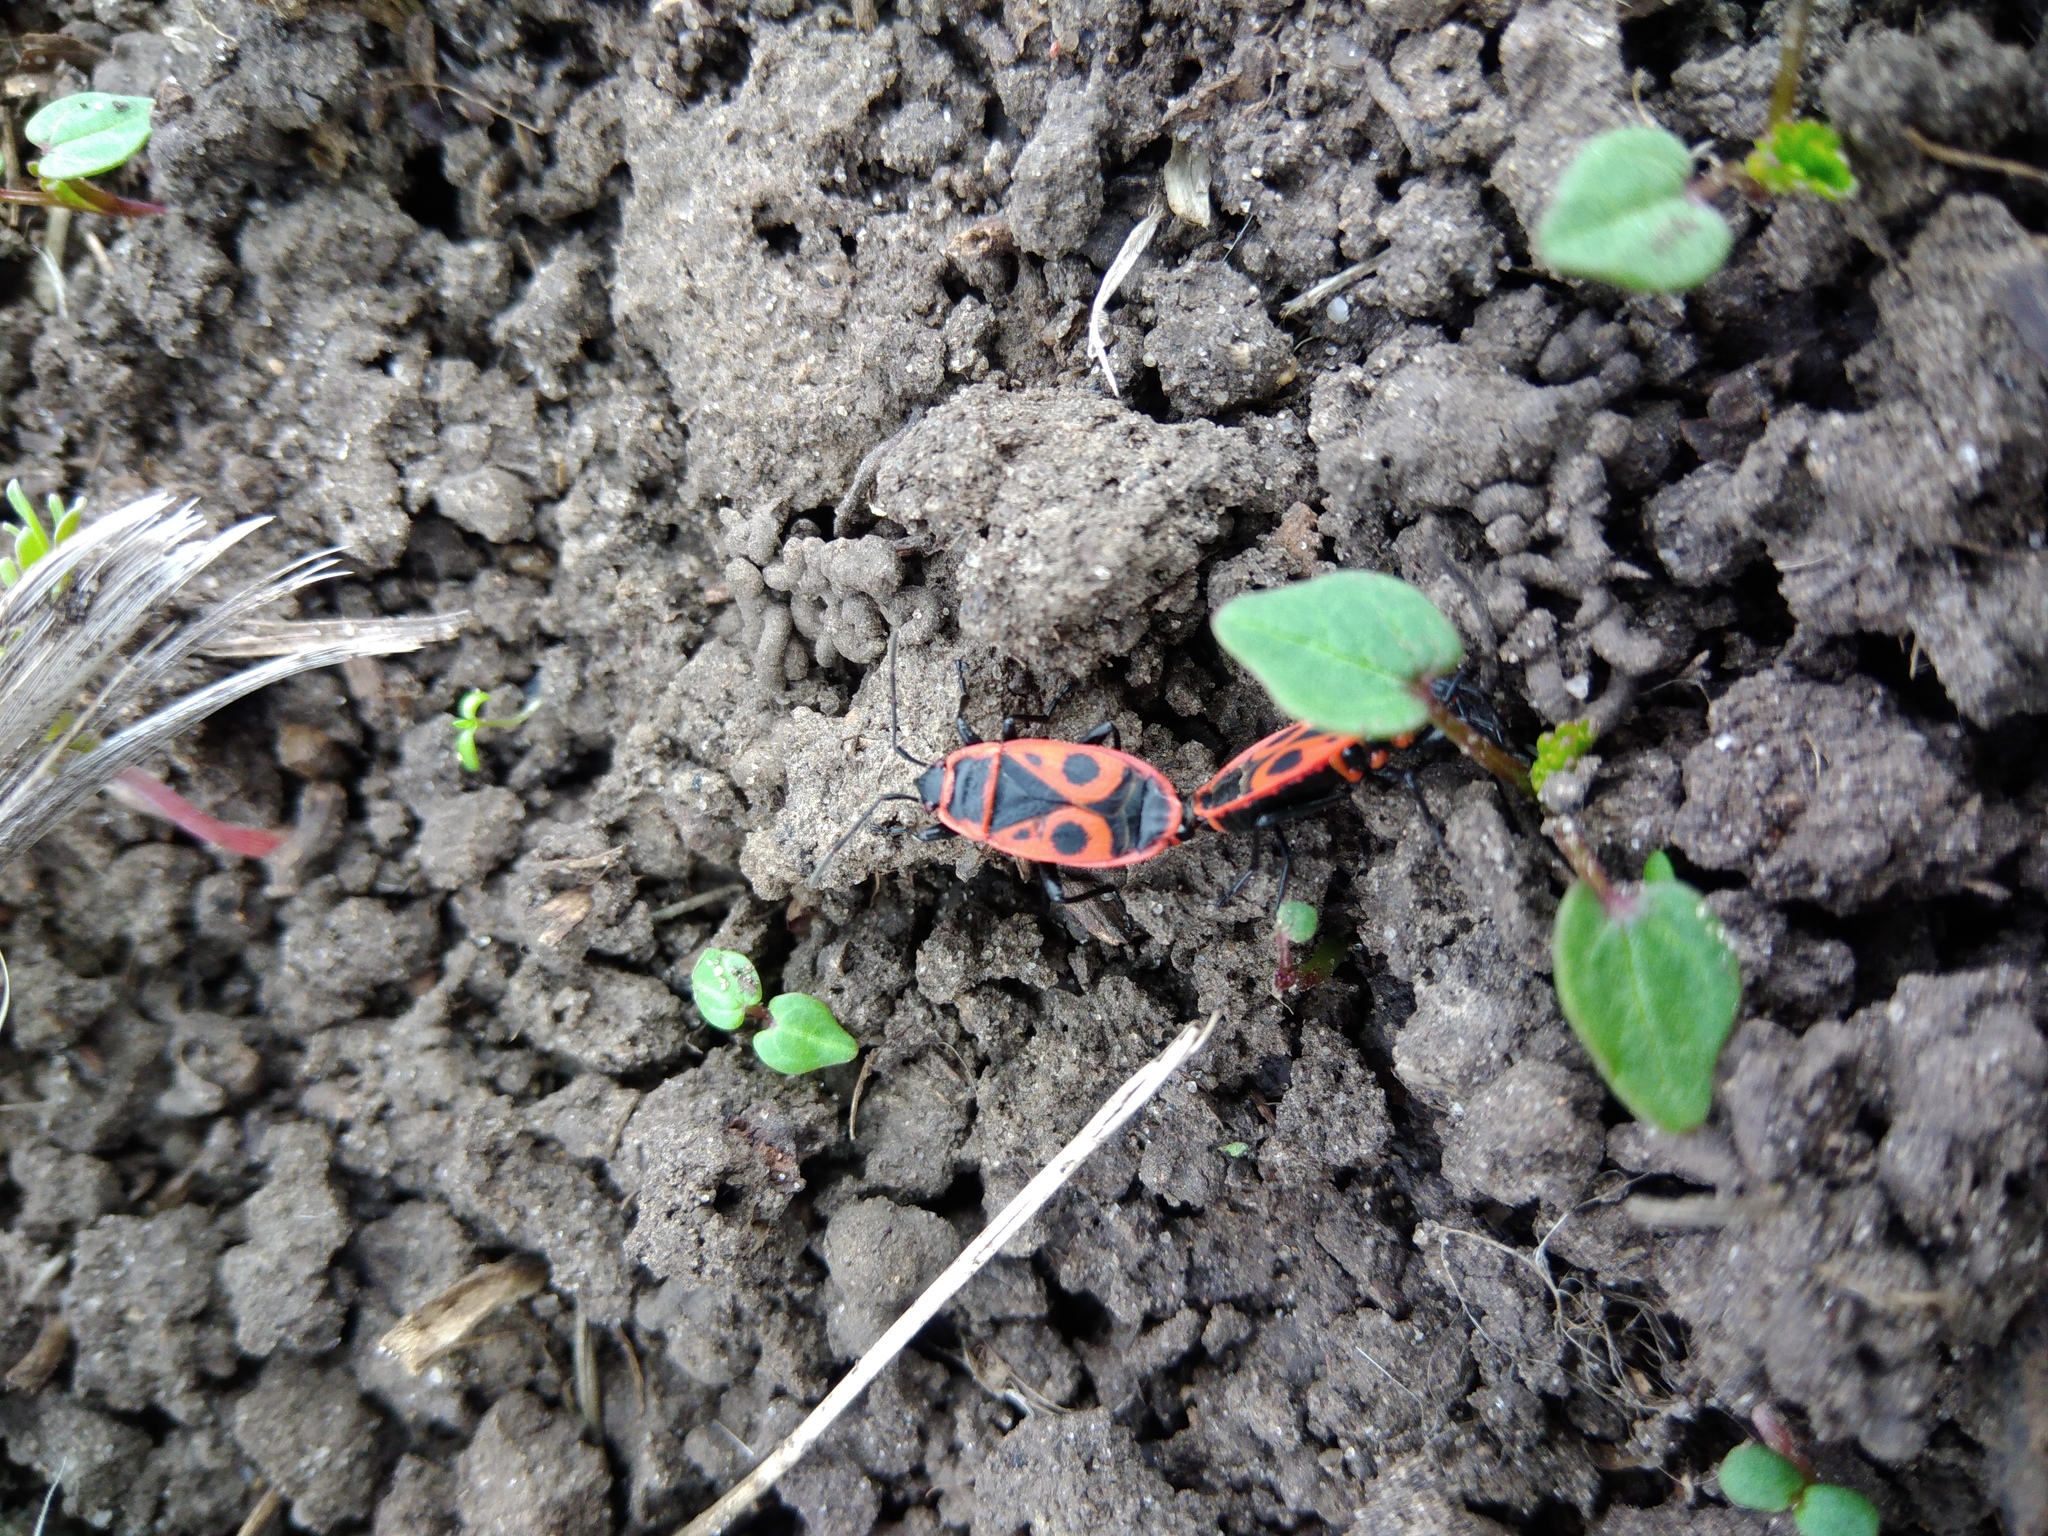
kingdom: Animalia
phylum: Arthropoda
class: Insecta
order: Hemiptera
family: Pyrrhocoridae
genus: Pyrrhocoris
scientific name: Pyrrhocoris apterus
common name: Firebug
